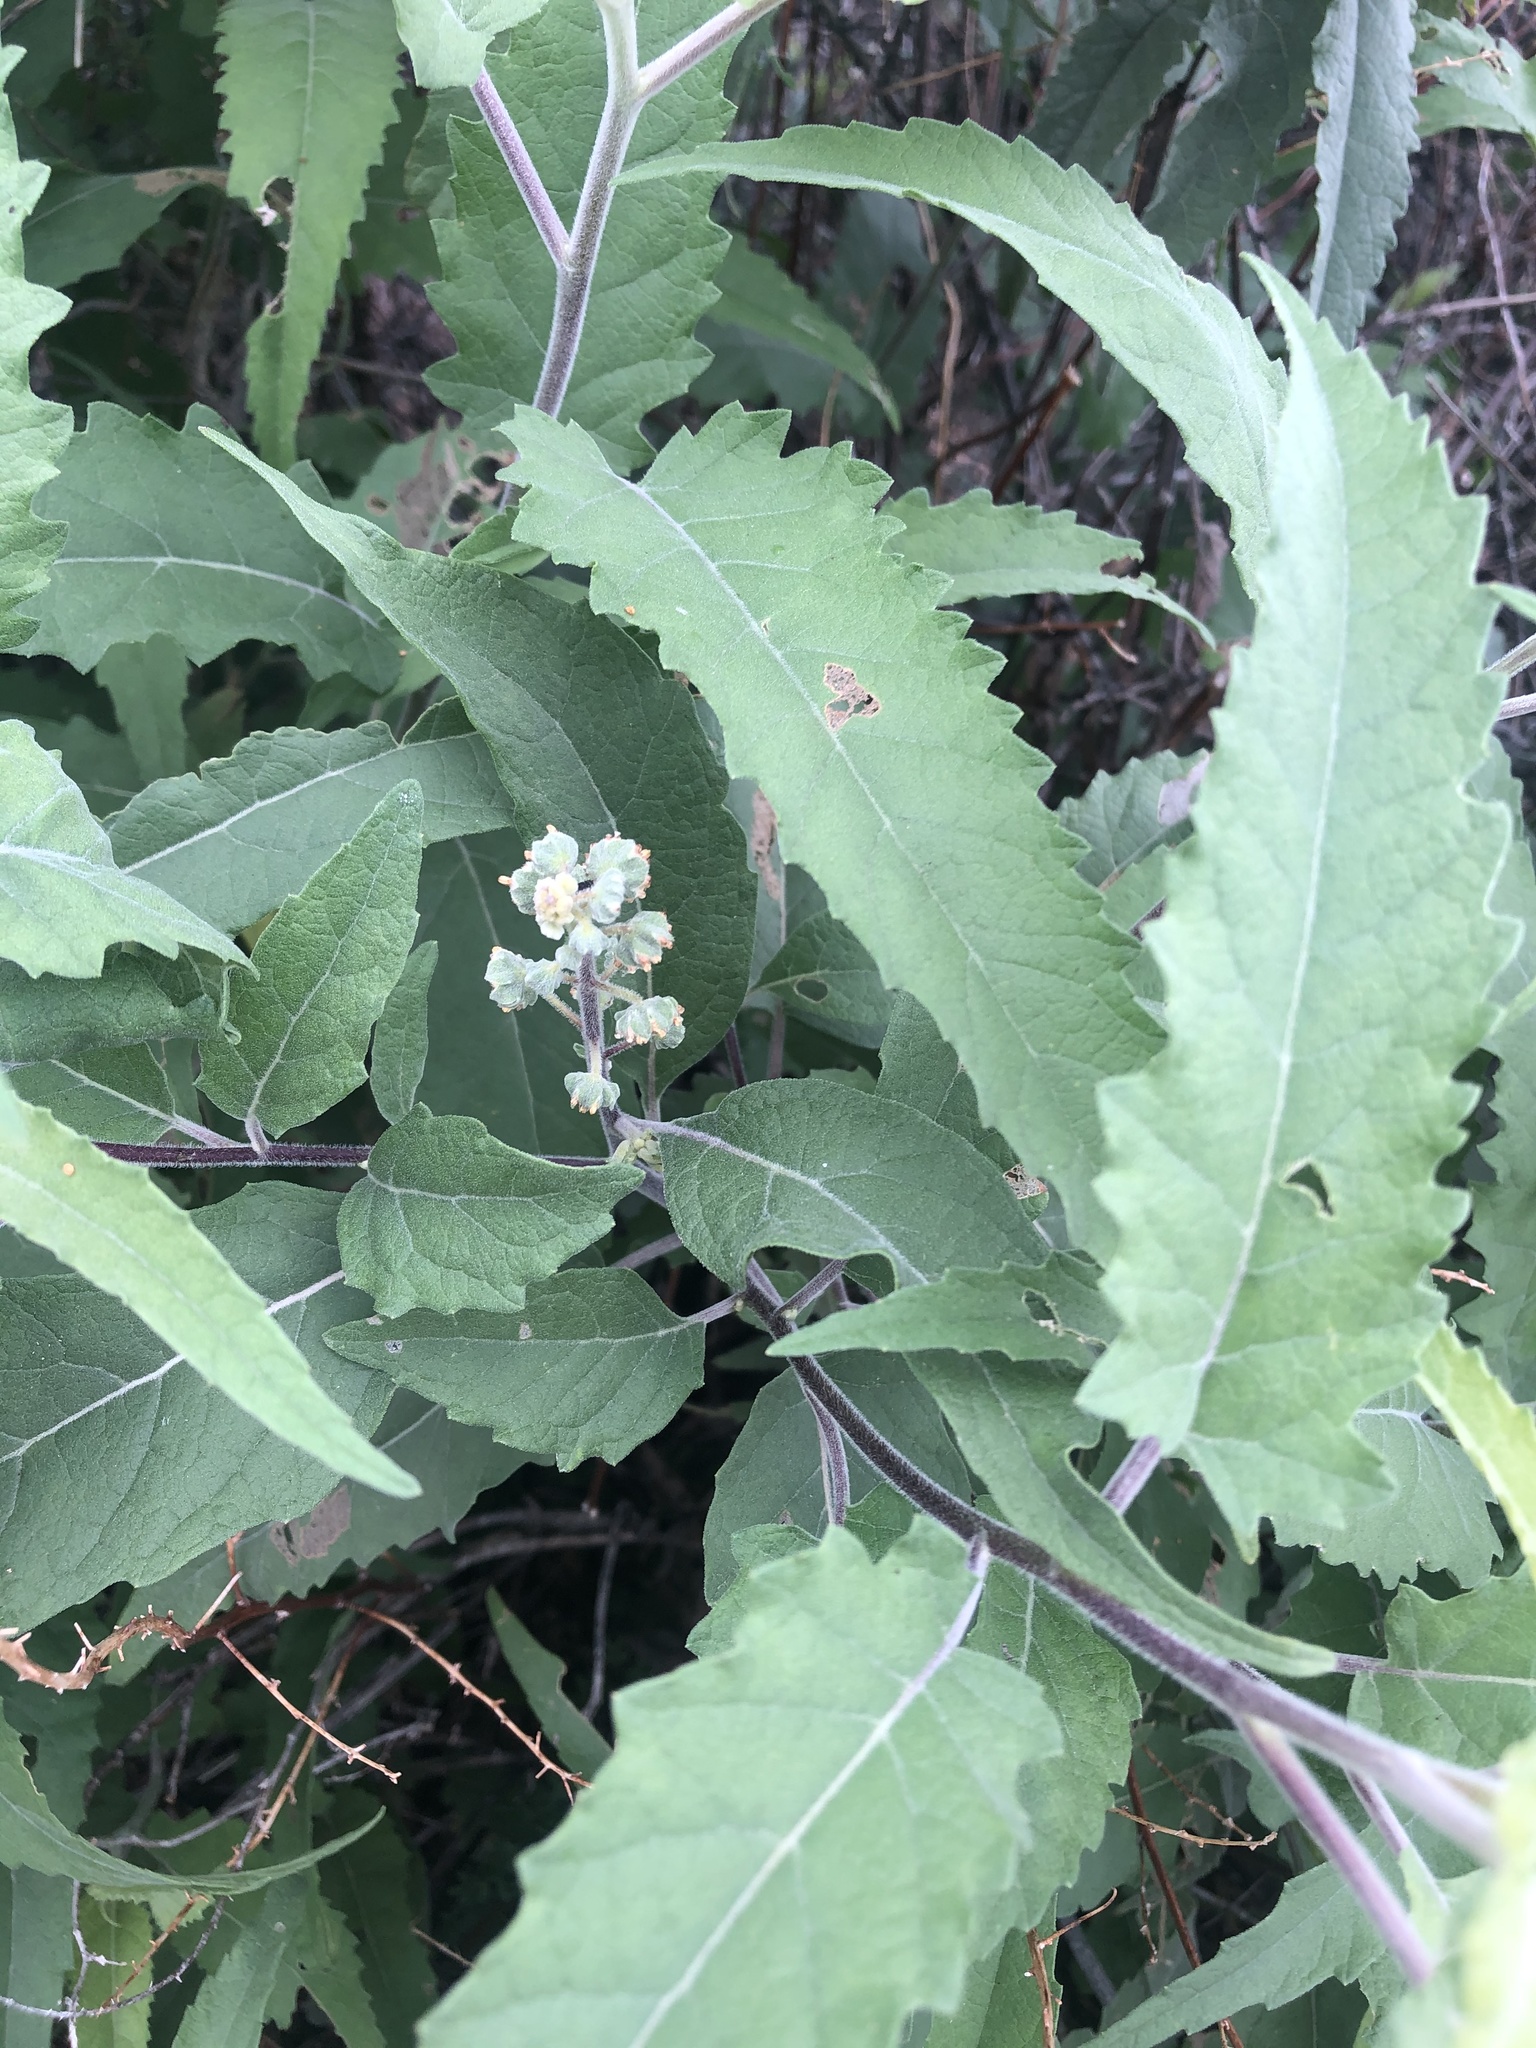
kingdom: Plantae
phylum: Tracheophyta
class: Magnoliopsida
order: Asterales
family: Asteraceae
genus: Ambrosia
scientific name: Ambrosia ambrosioides
